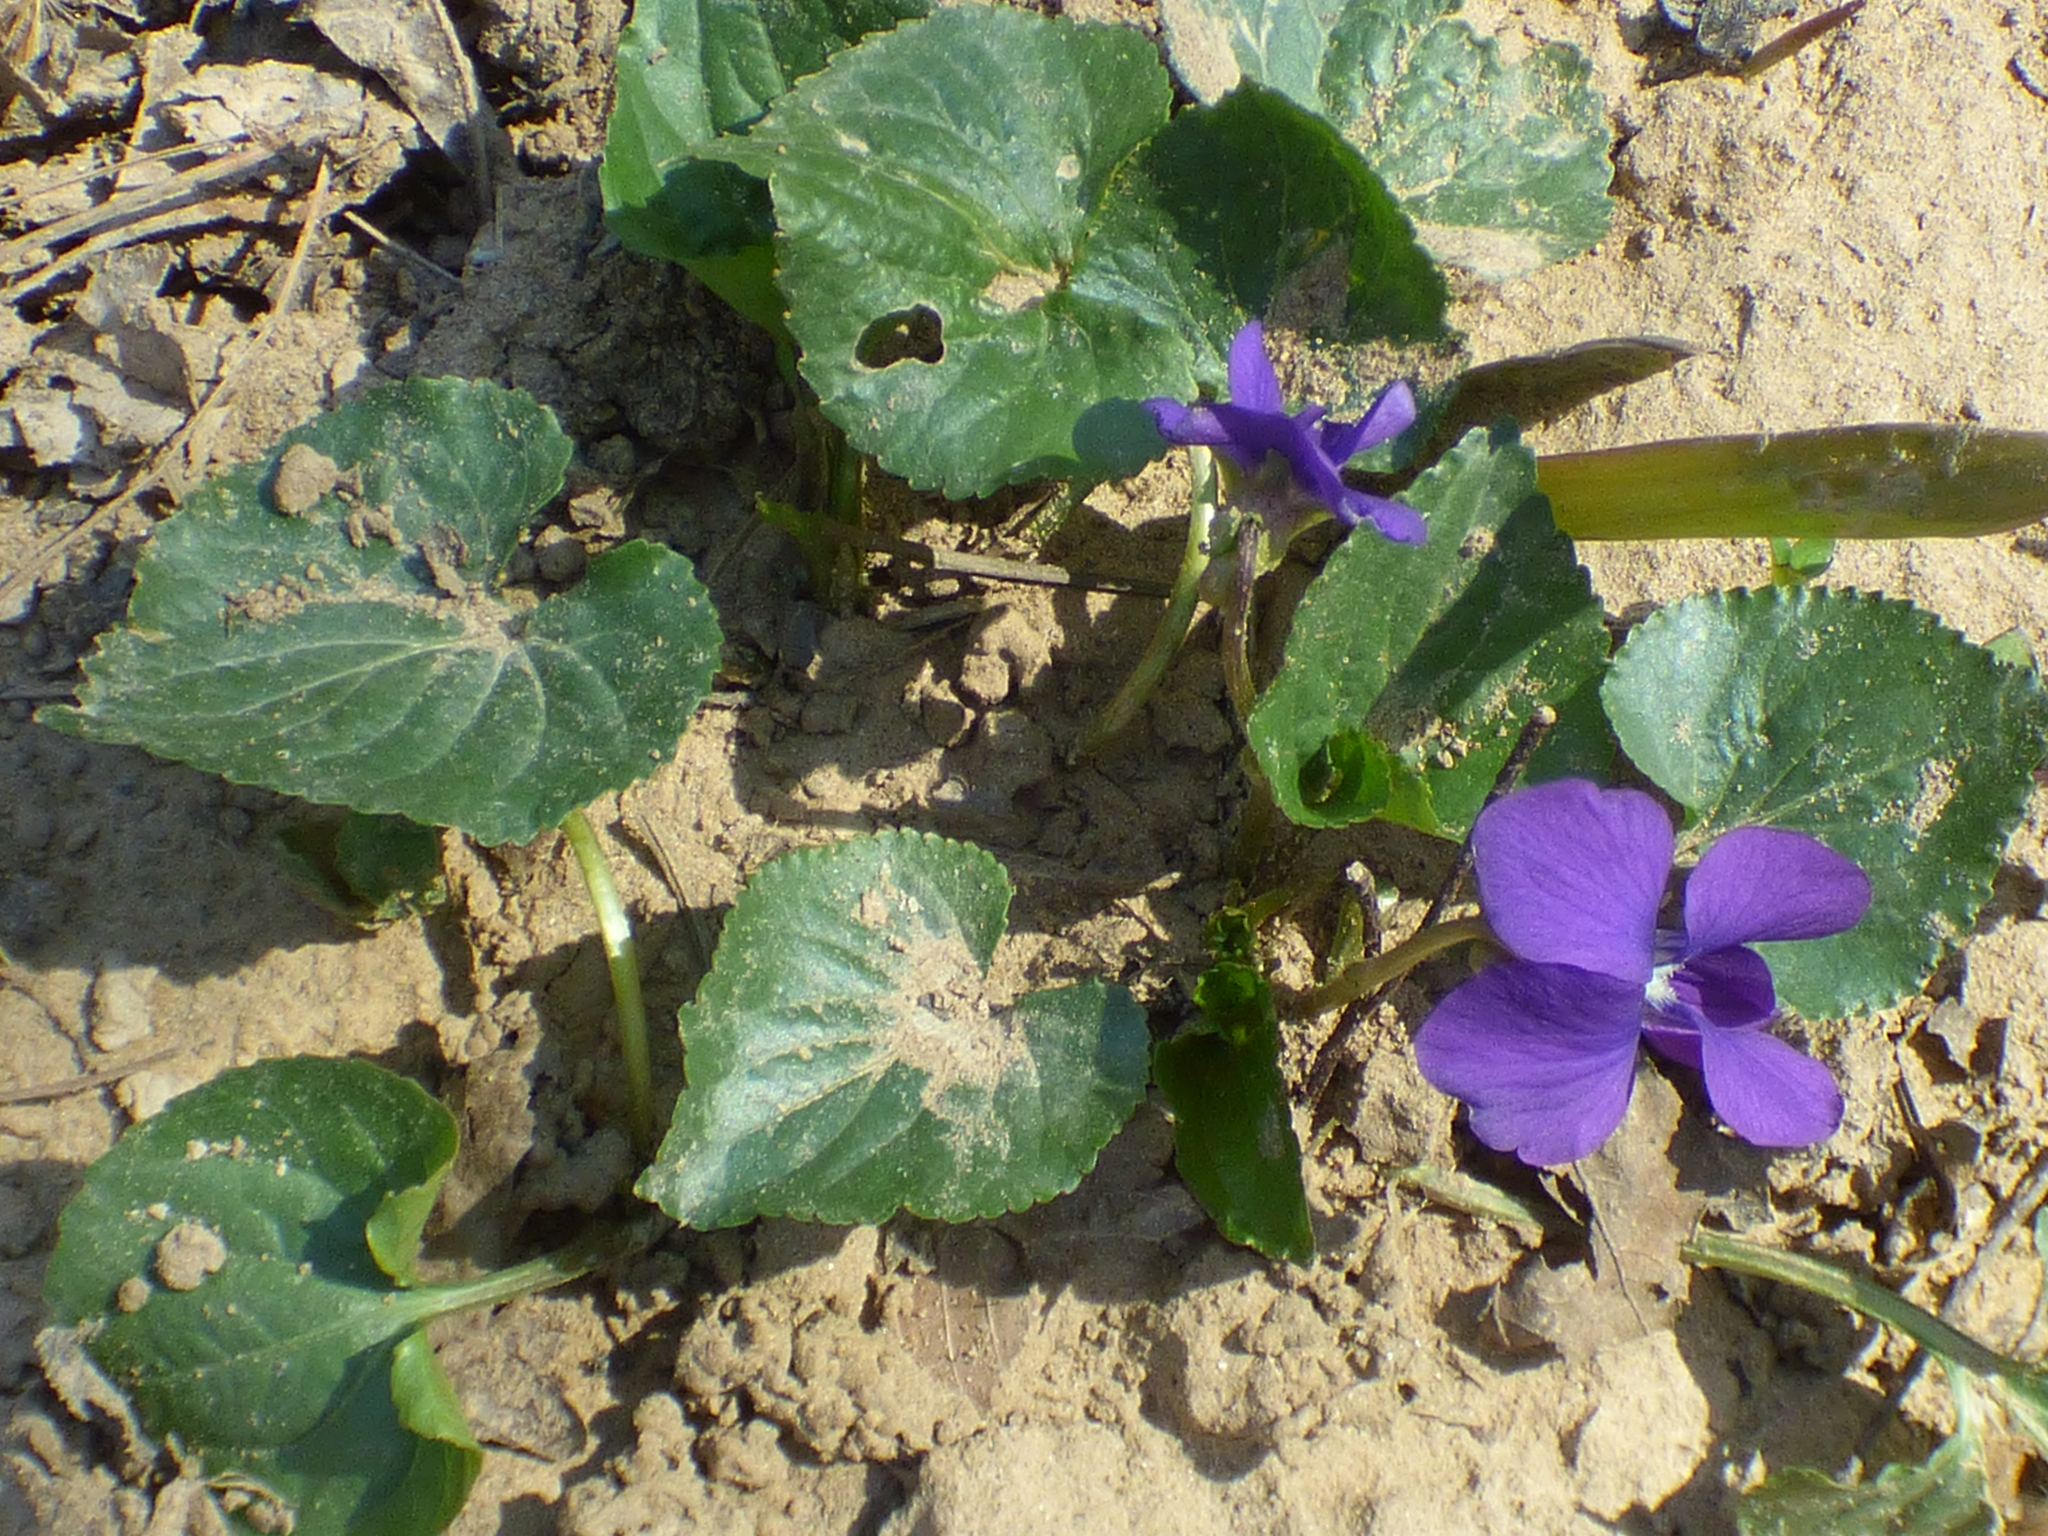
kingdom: Plantae
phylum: Tracheophyta
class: Magnoliopsida
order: Malpighiales
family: Violaceae
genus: Viola
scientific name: Viola sororia
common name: Dooryard violet
